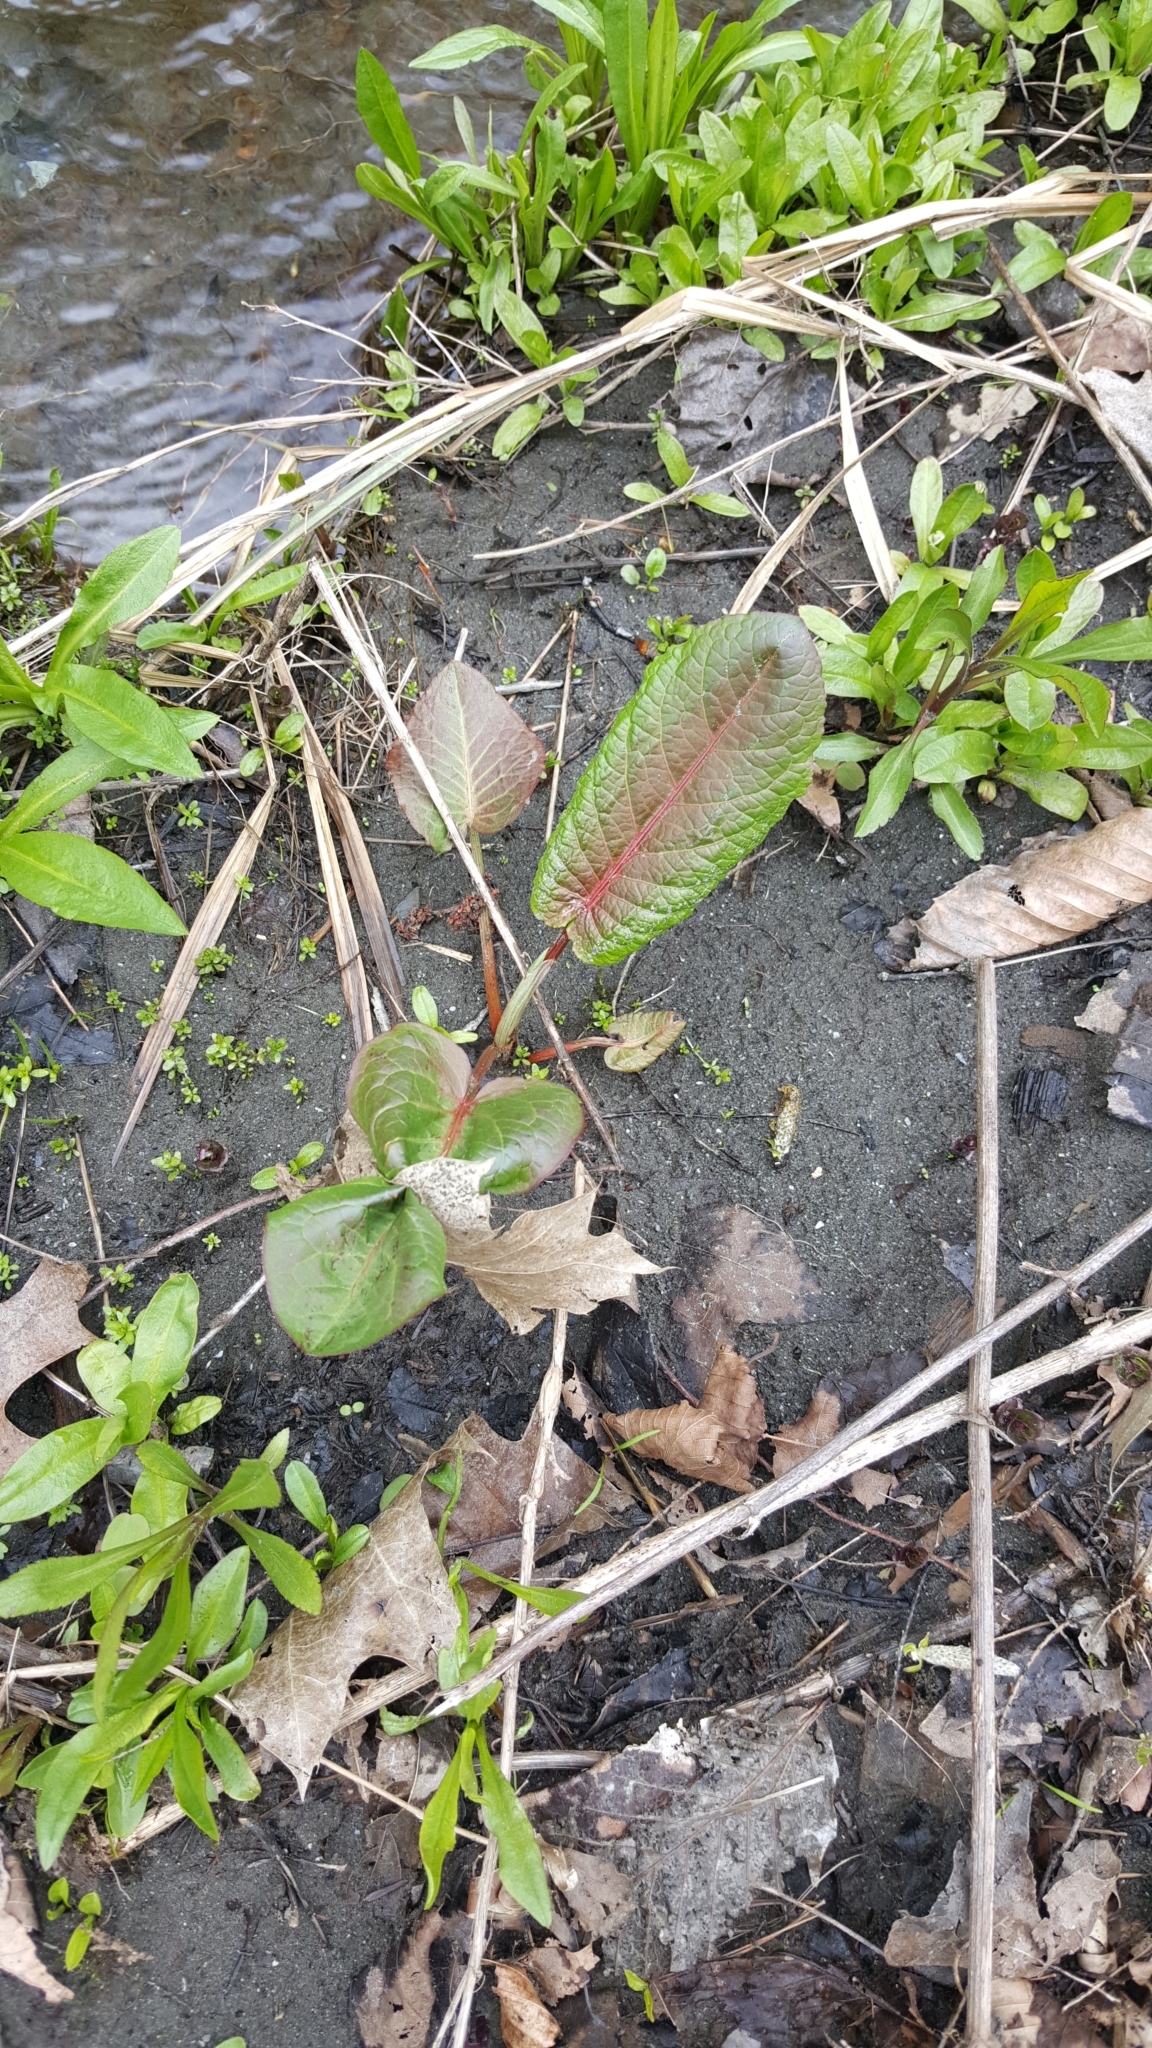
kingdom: Plantae
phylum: Tracheophyta
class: Magnoliopsida
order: Caryophyllales
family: Polygonaceae
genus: Rumex
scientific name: Rumex obtusifolius
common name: Bitter dock
